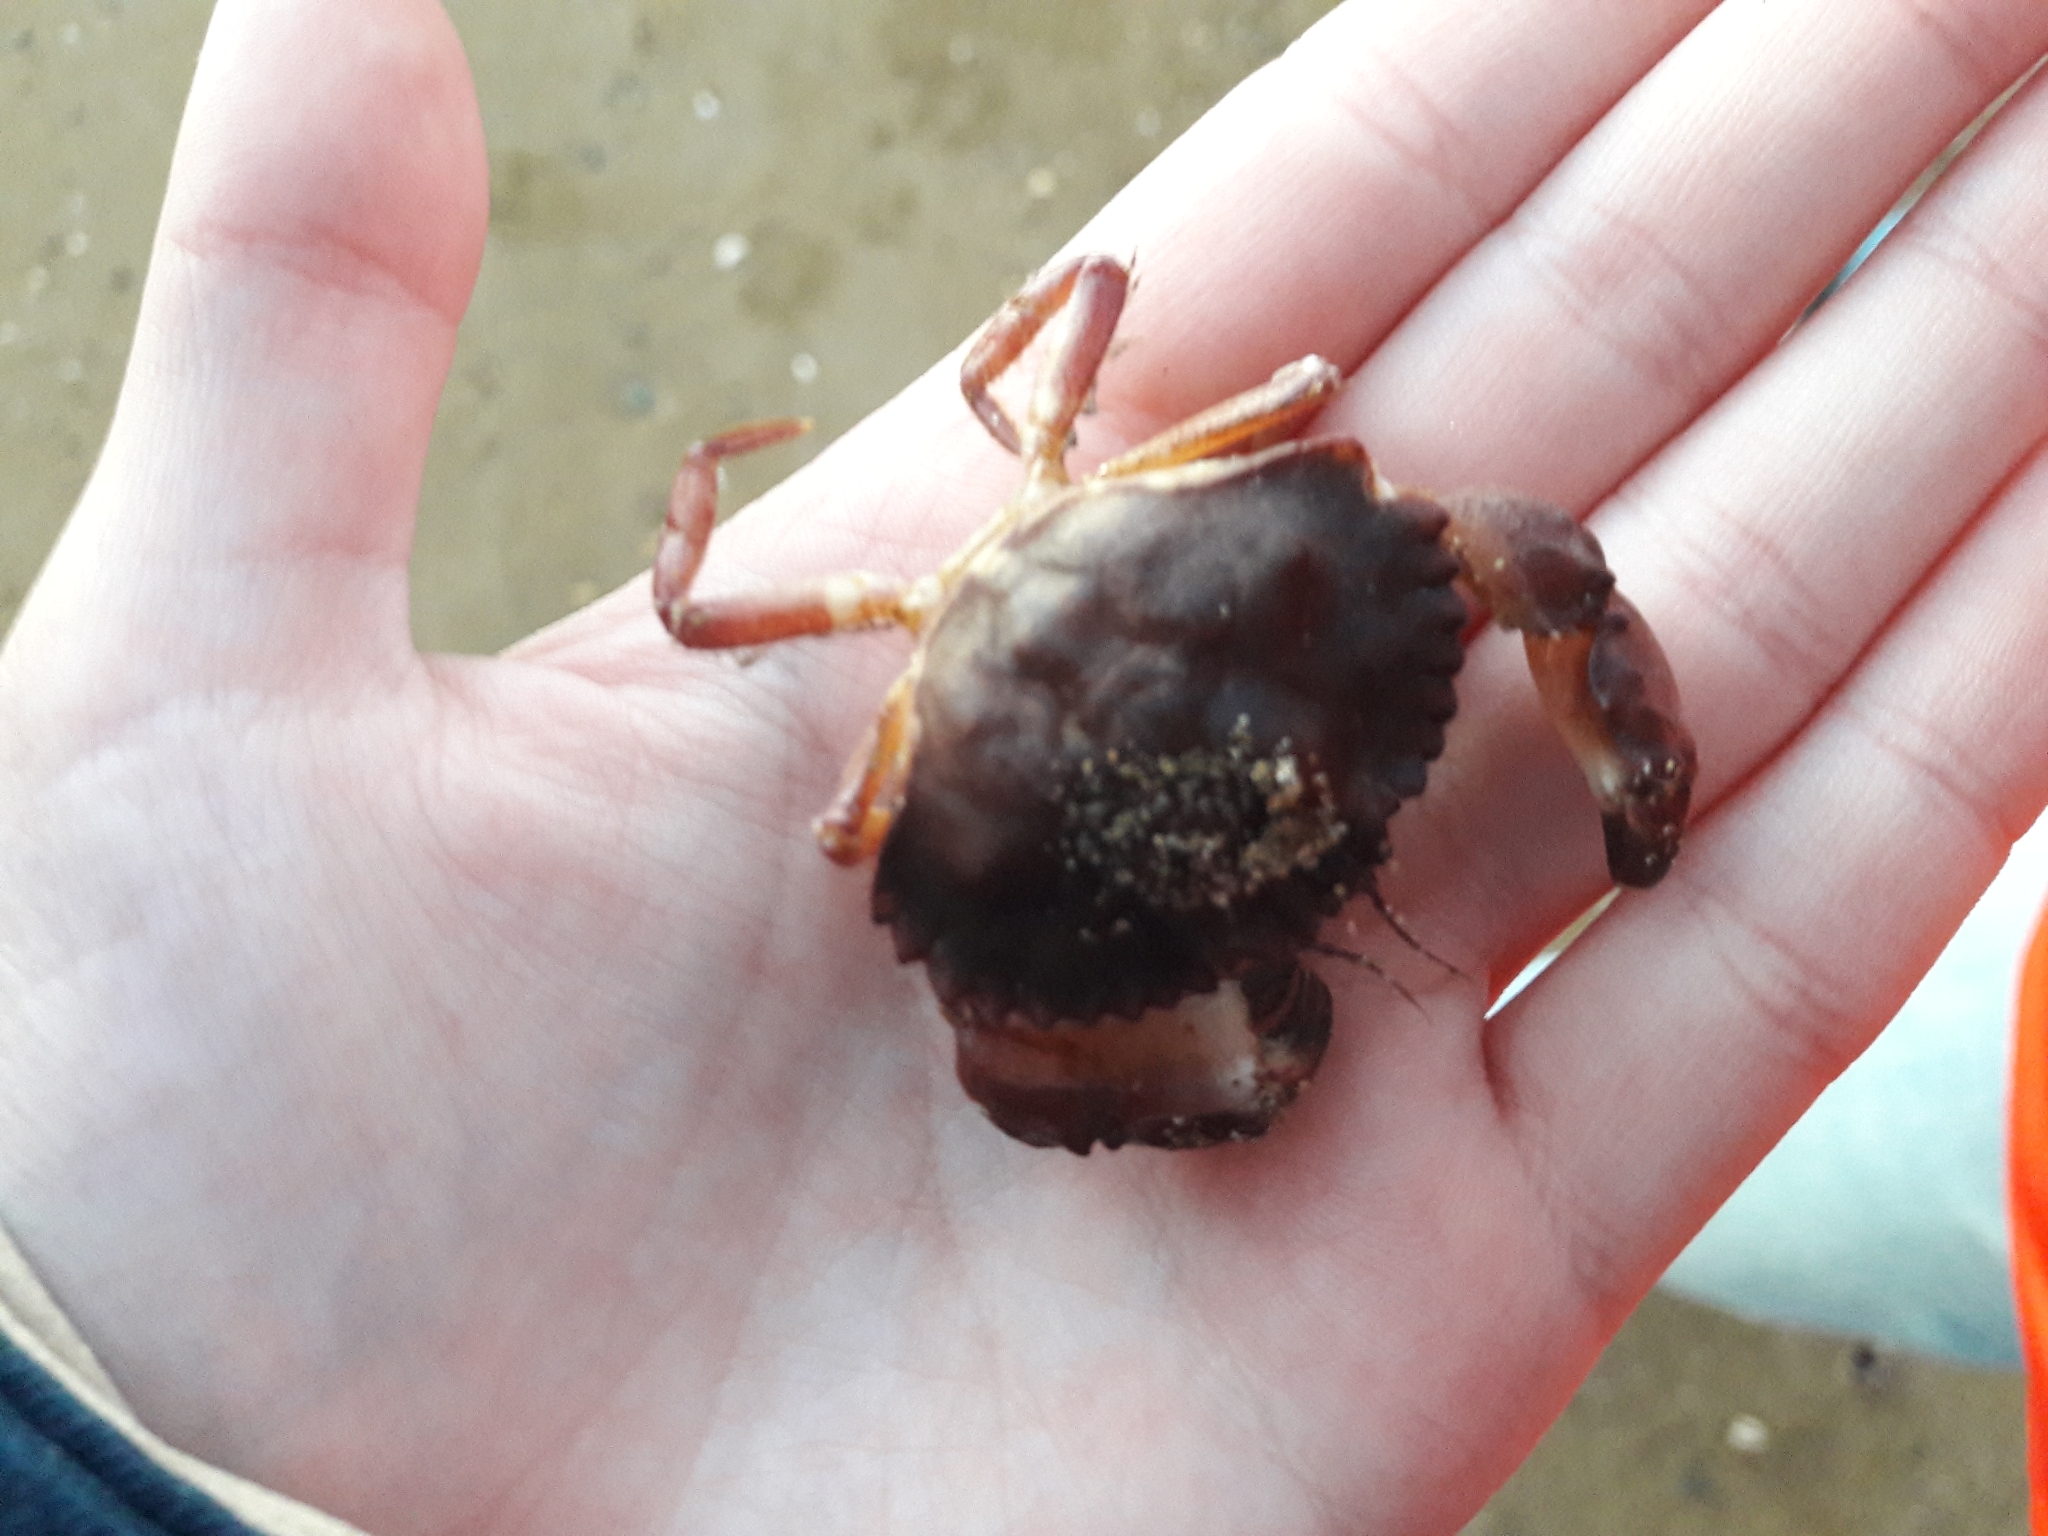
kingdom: Animalia
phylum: Arthropoda
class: Malacostraca
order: Decapoda
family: Cancridae
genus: Glebocarcinus
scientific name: Glebocarcinus amphioetus
